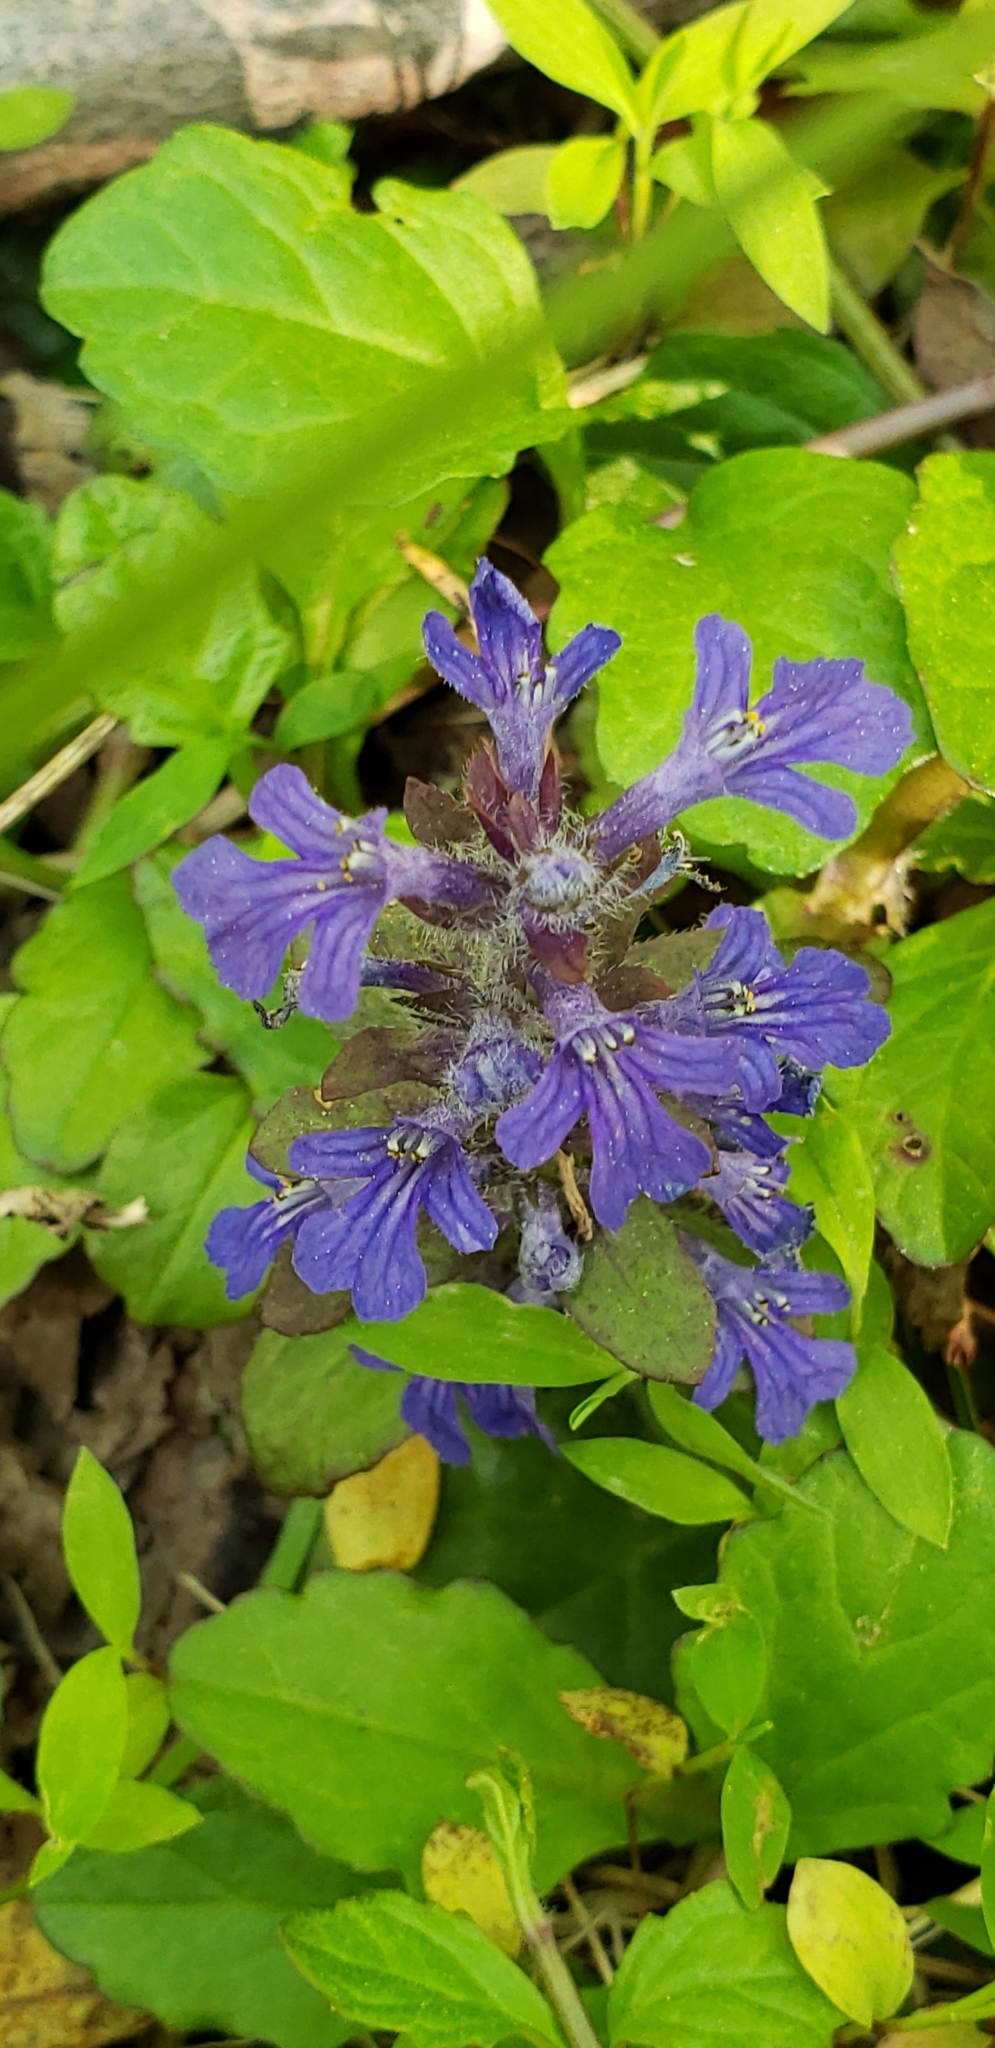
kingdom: Plantae
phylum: Tracheophyta
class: Magnoliopsida
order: Lamiales
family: Lamiaceae
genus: Ajuga
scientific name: Ajuga reptans
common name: Bugle
